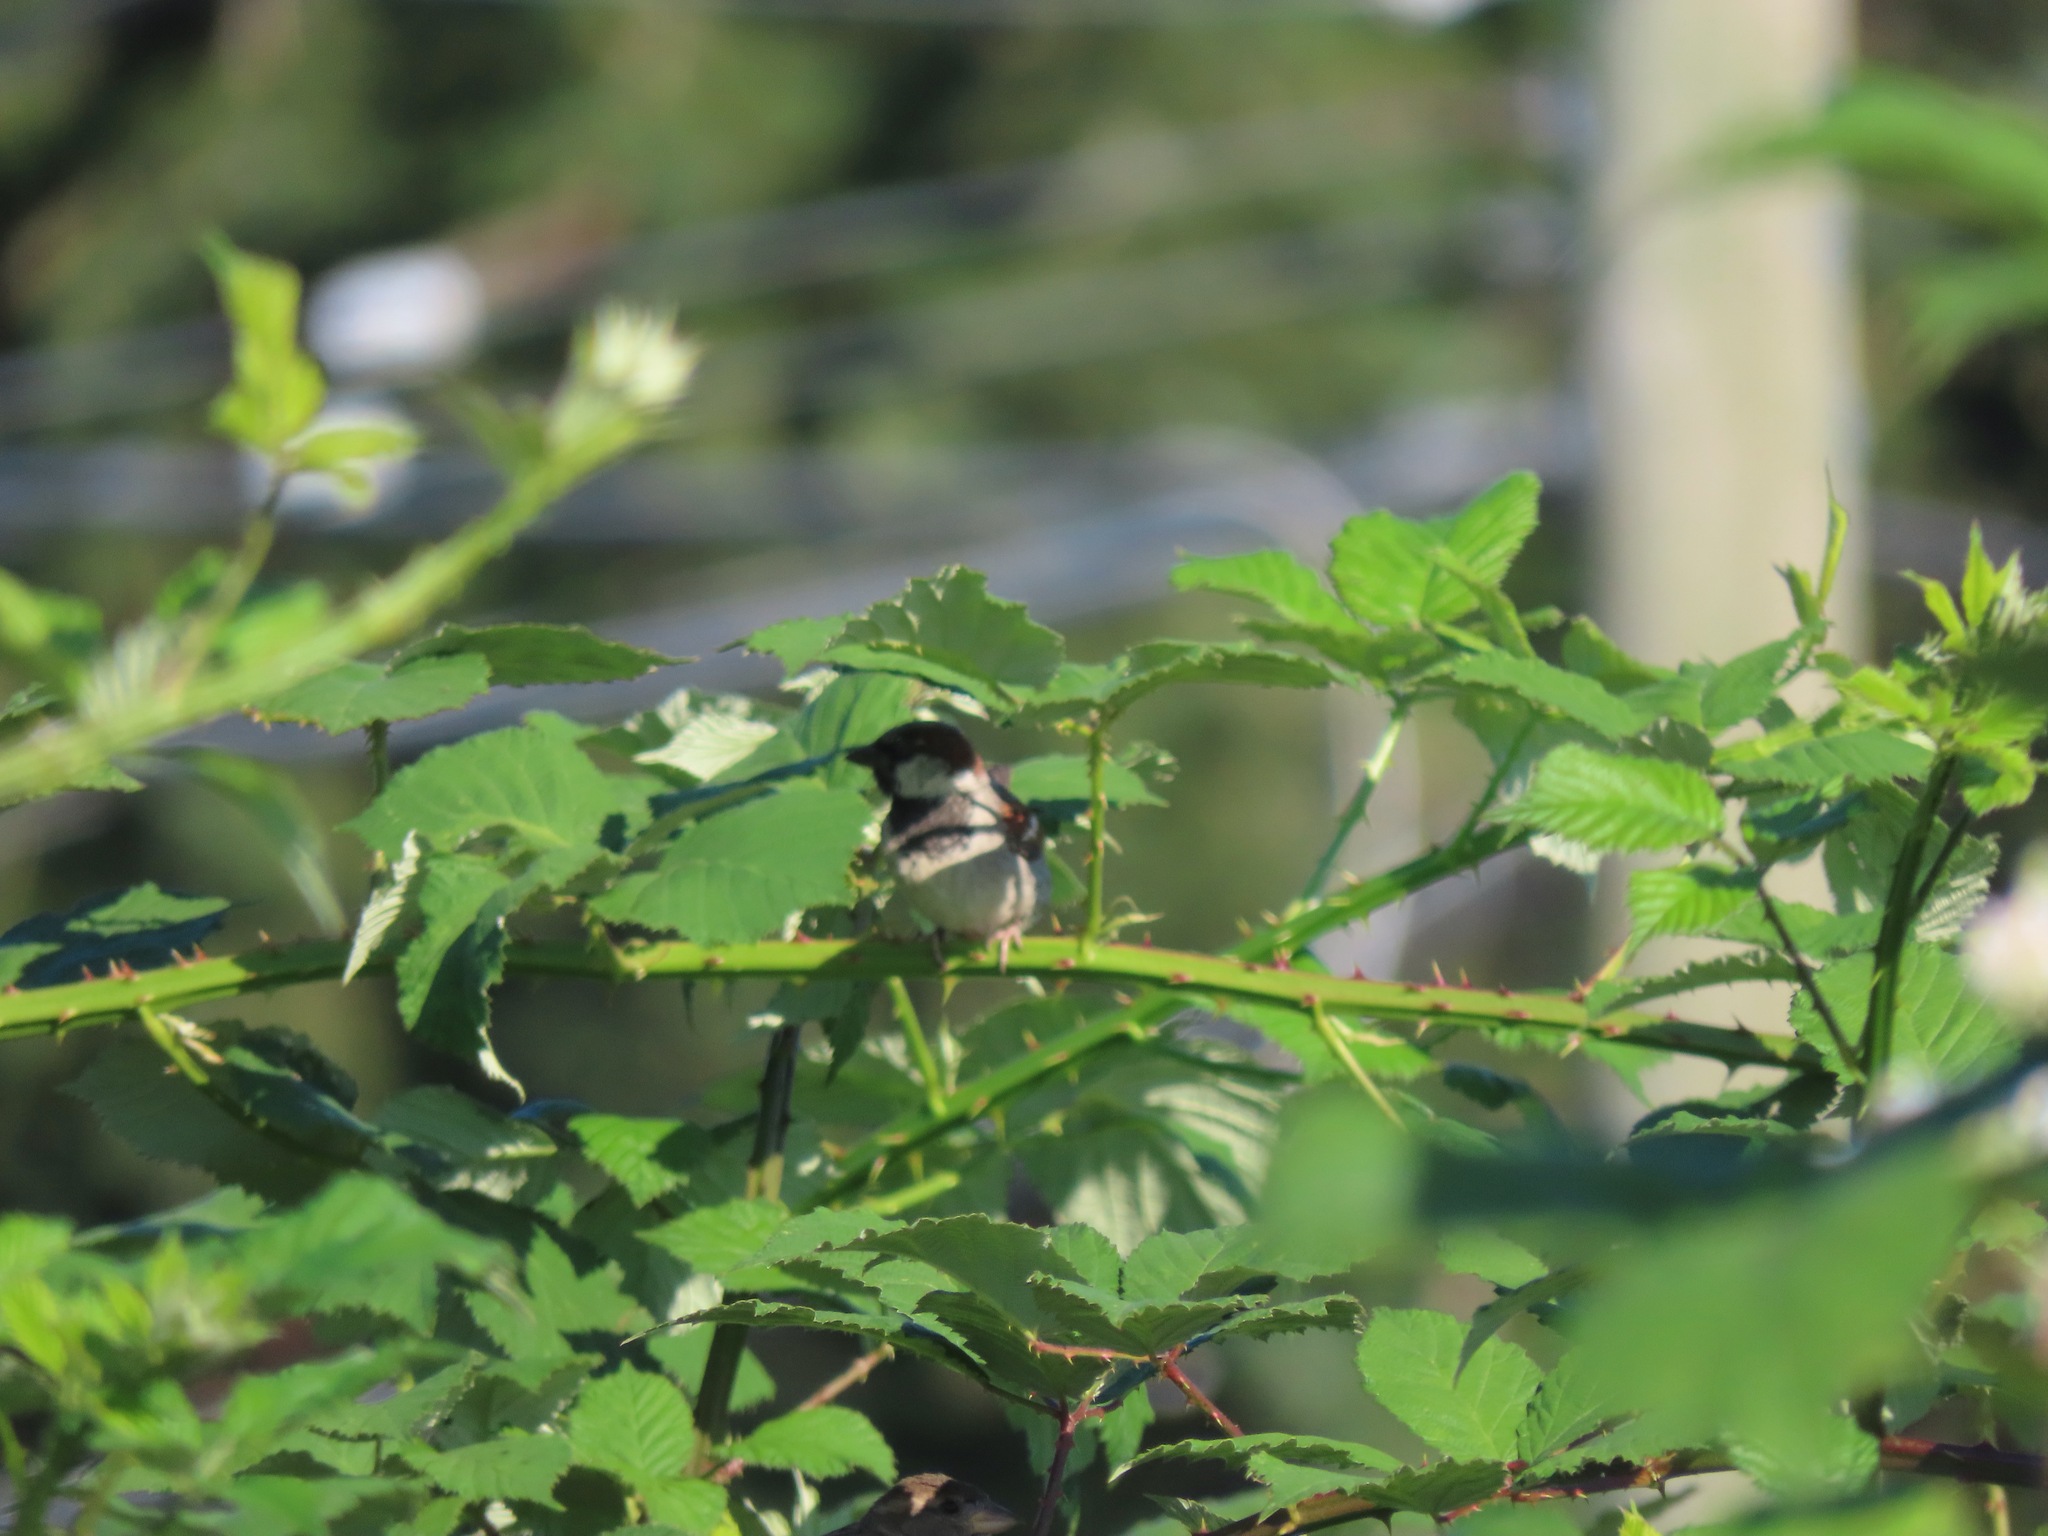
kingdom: Animalia
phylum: Chordata
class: Aves
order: Passeriformes
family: Passeridae
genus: Passer
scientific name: Passer domesticus
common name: House sparrow
